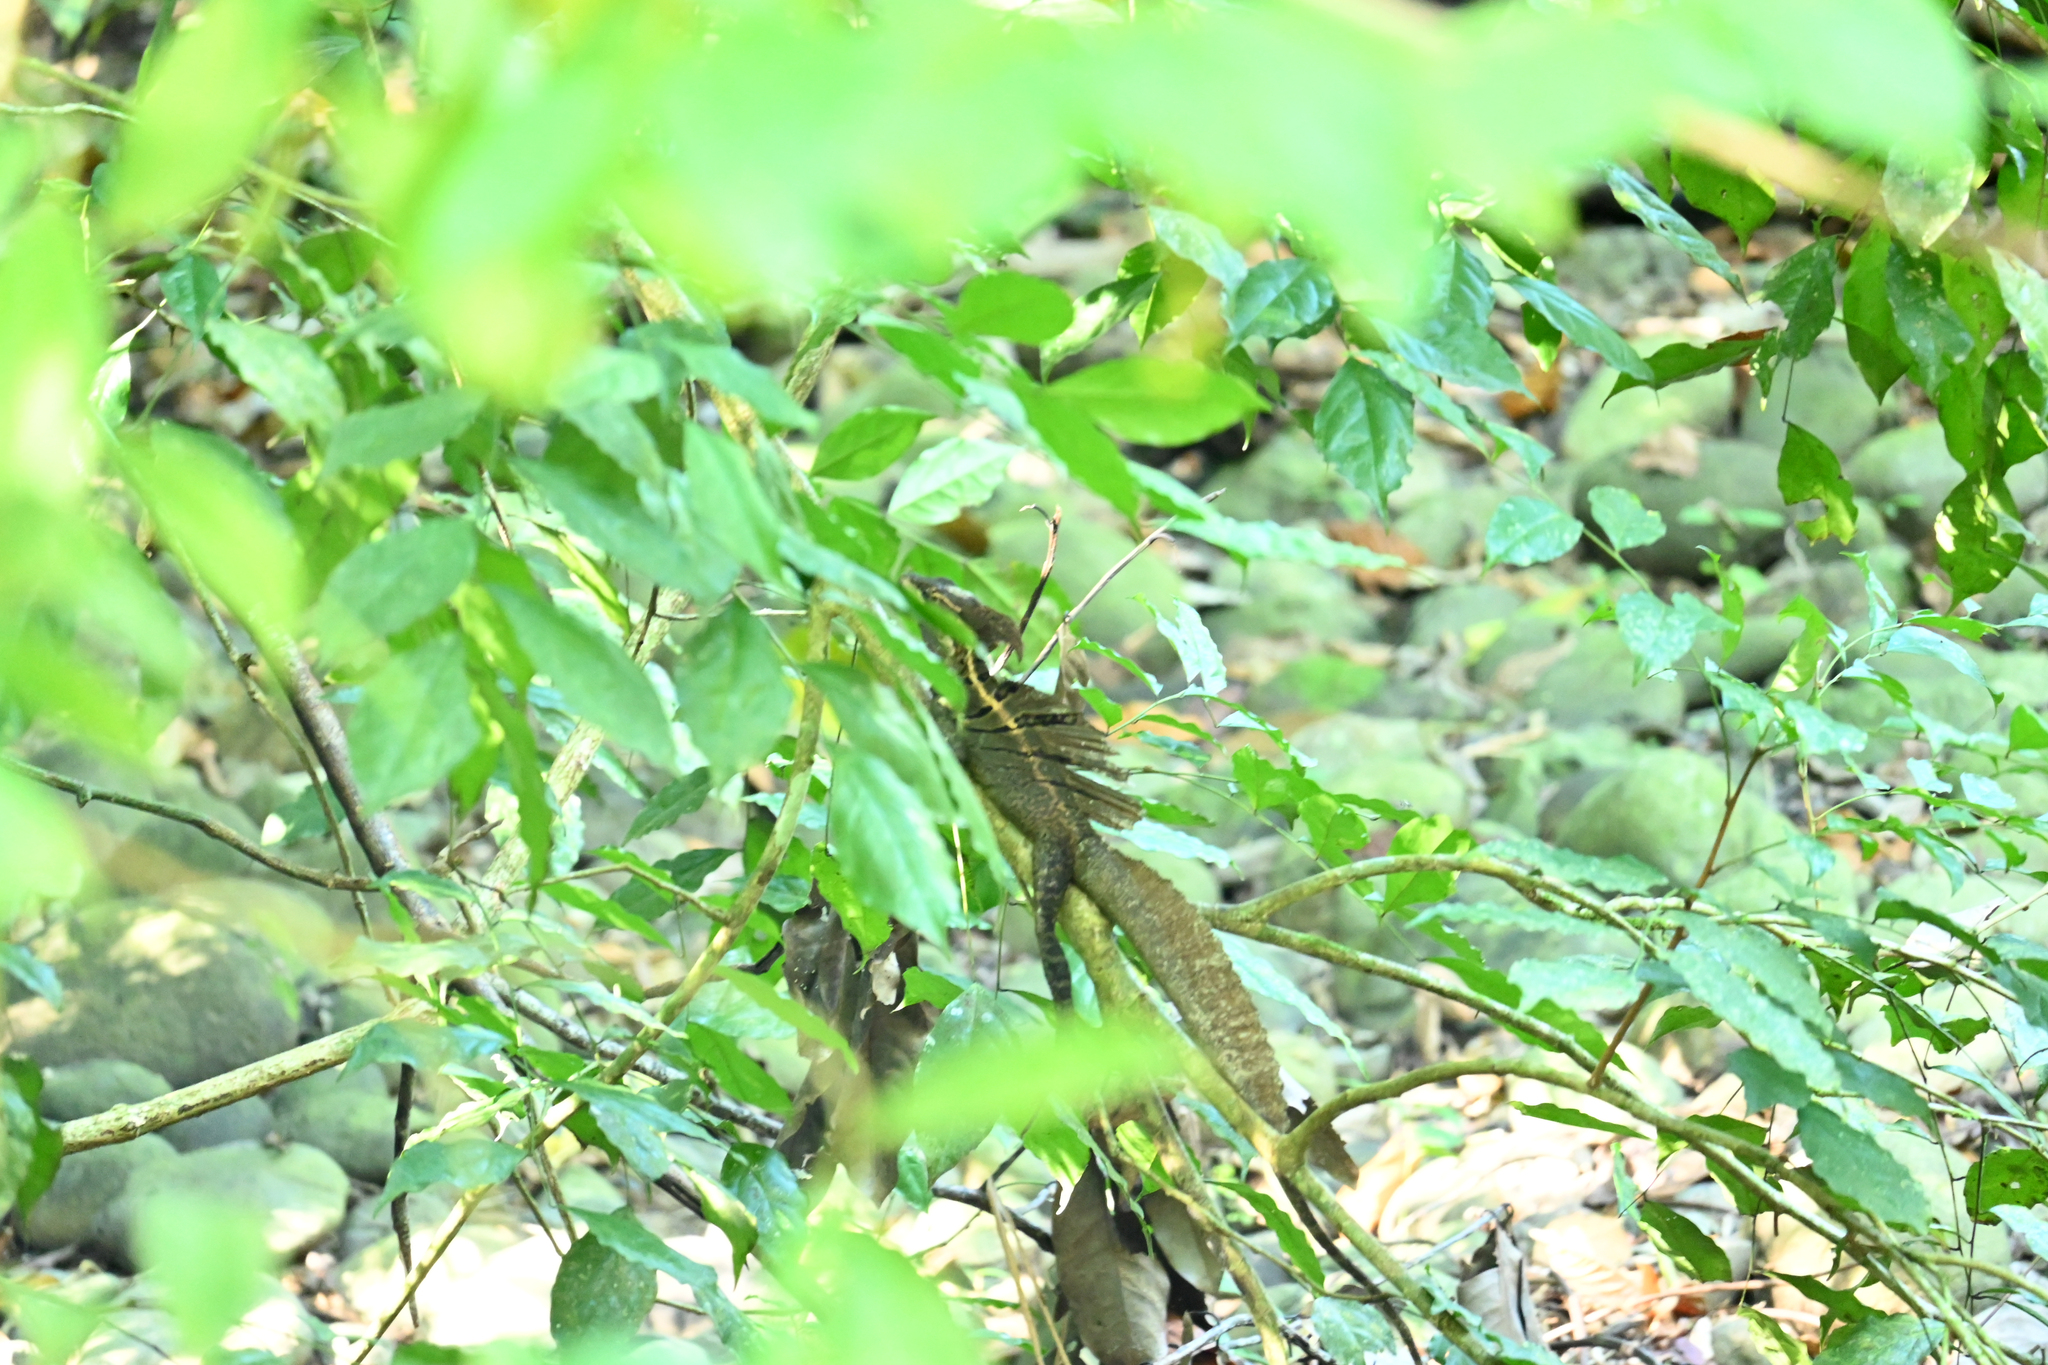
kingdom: Animalia
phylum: Chordata
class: Squamata
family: Corytophanidae
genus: Basiliscus
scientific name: Basiliscus basiliscus
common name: Common basilisk
